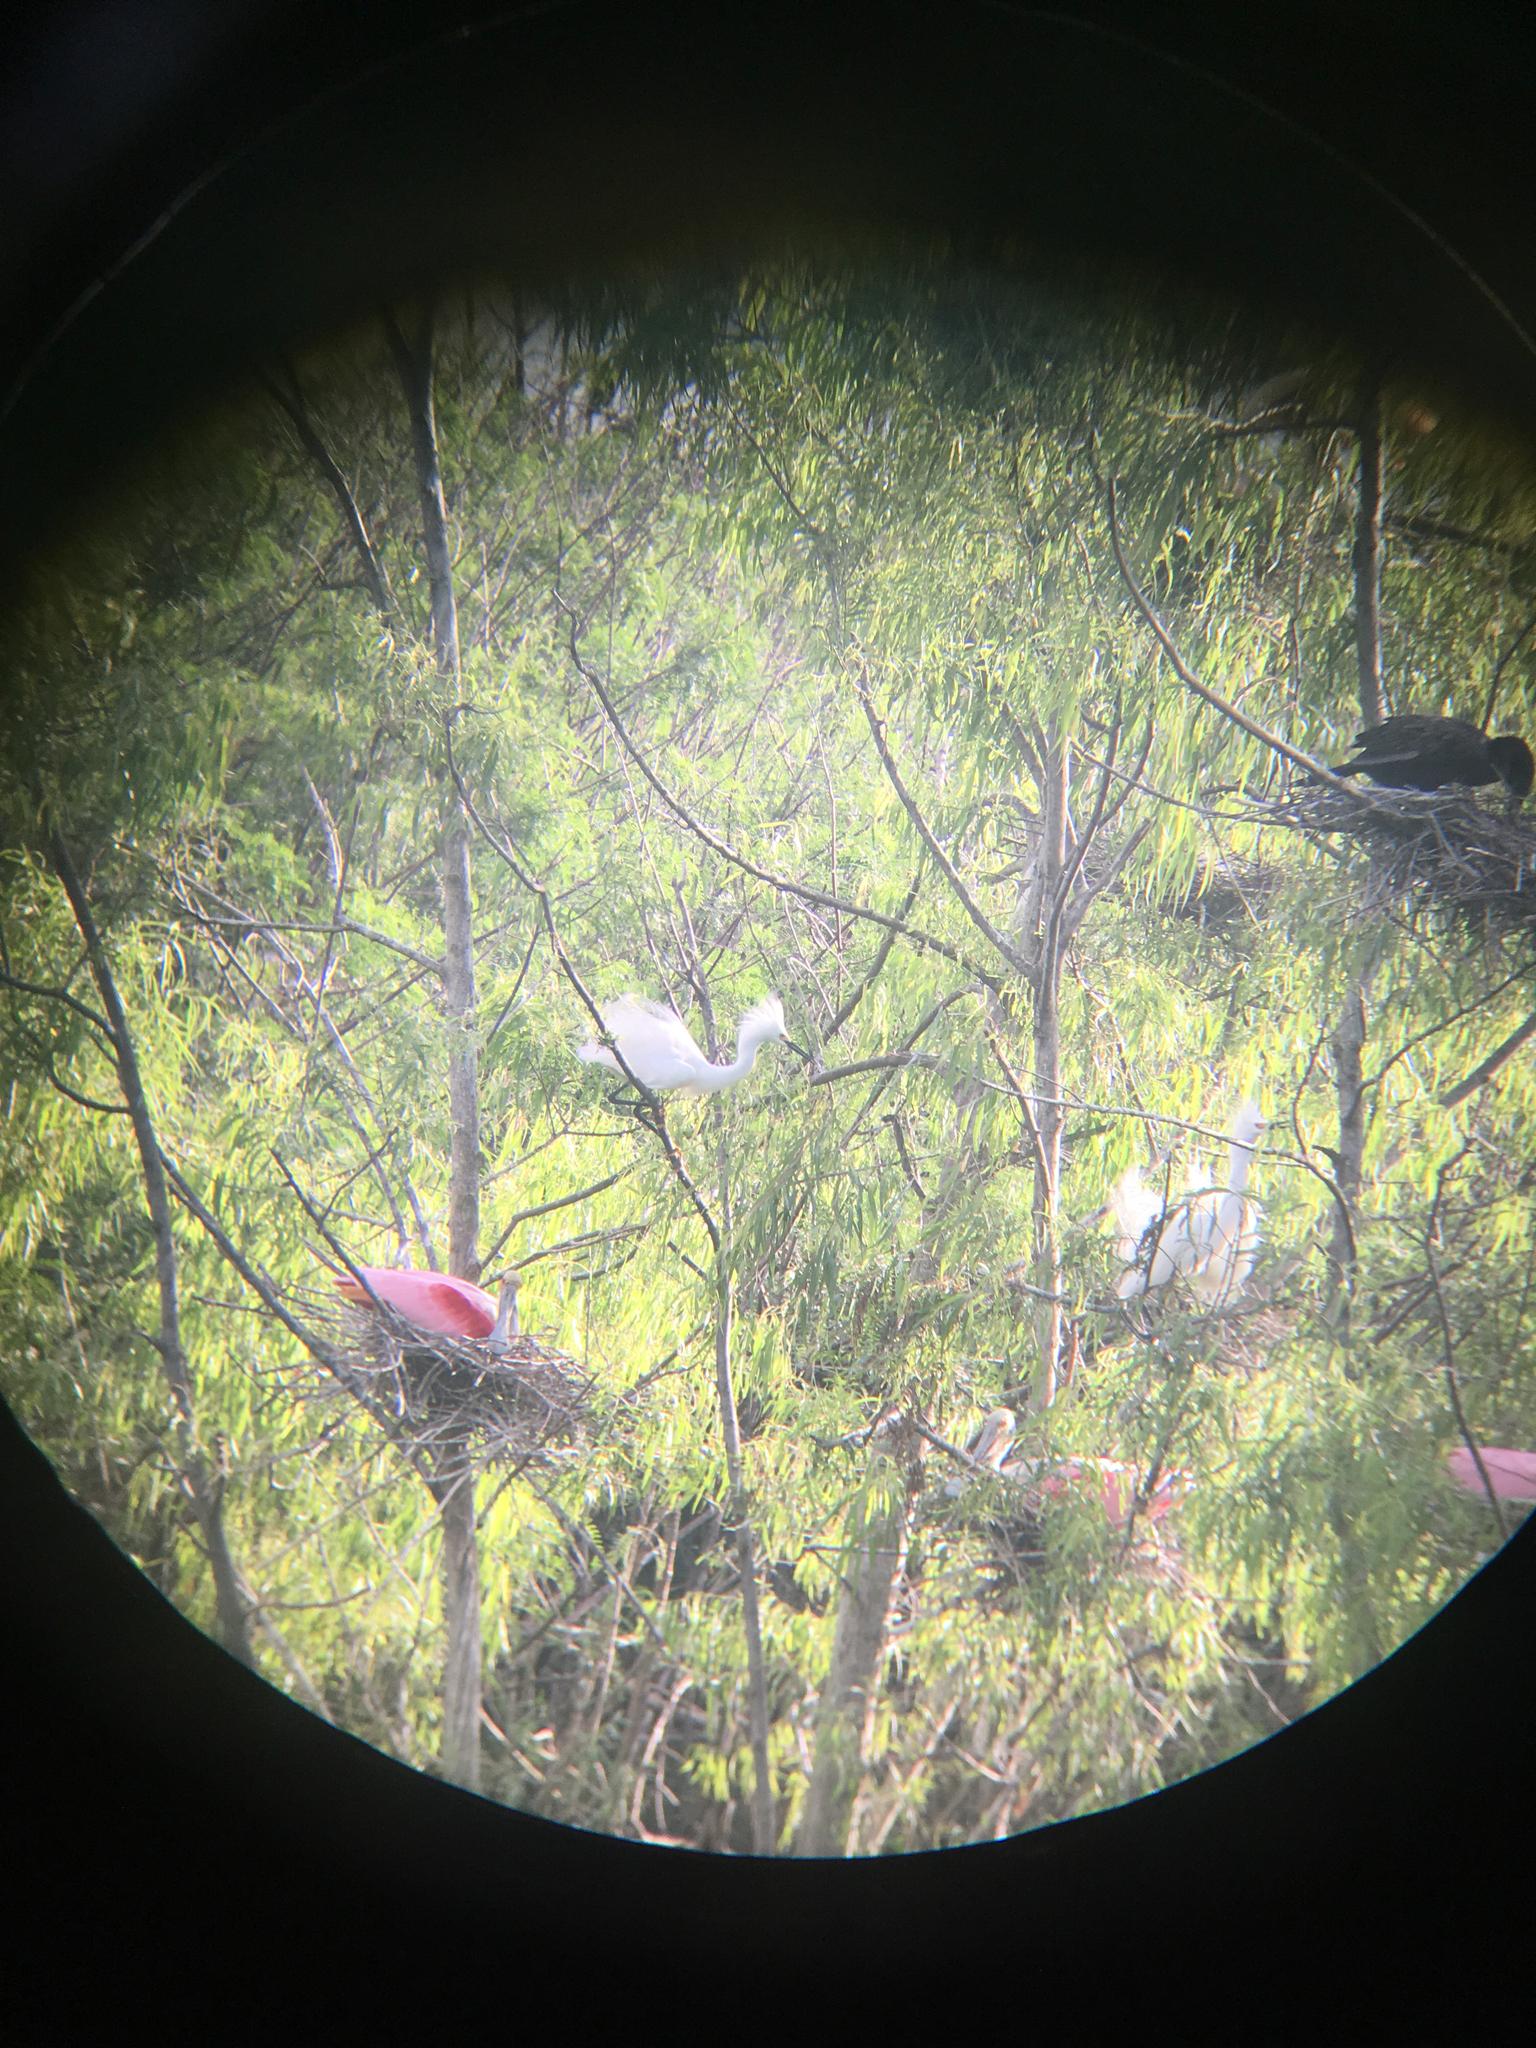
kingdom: Animalia
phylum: Chordata
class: Aves
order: Pelecaniformes
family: Ardeidae
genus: Egretta
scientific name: Egretta thula
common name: Snowy egret
